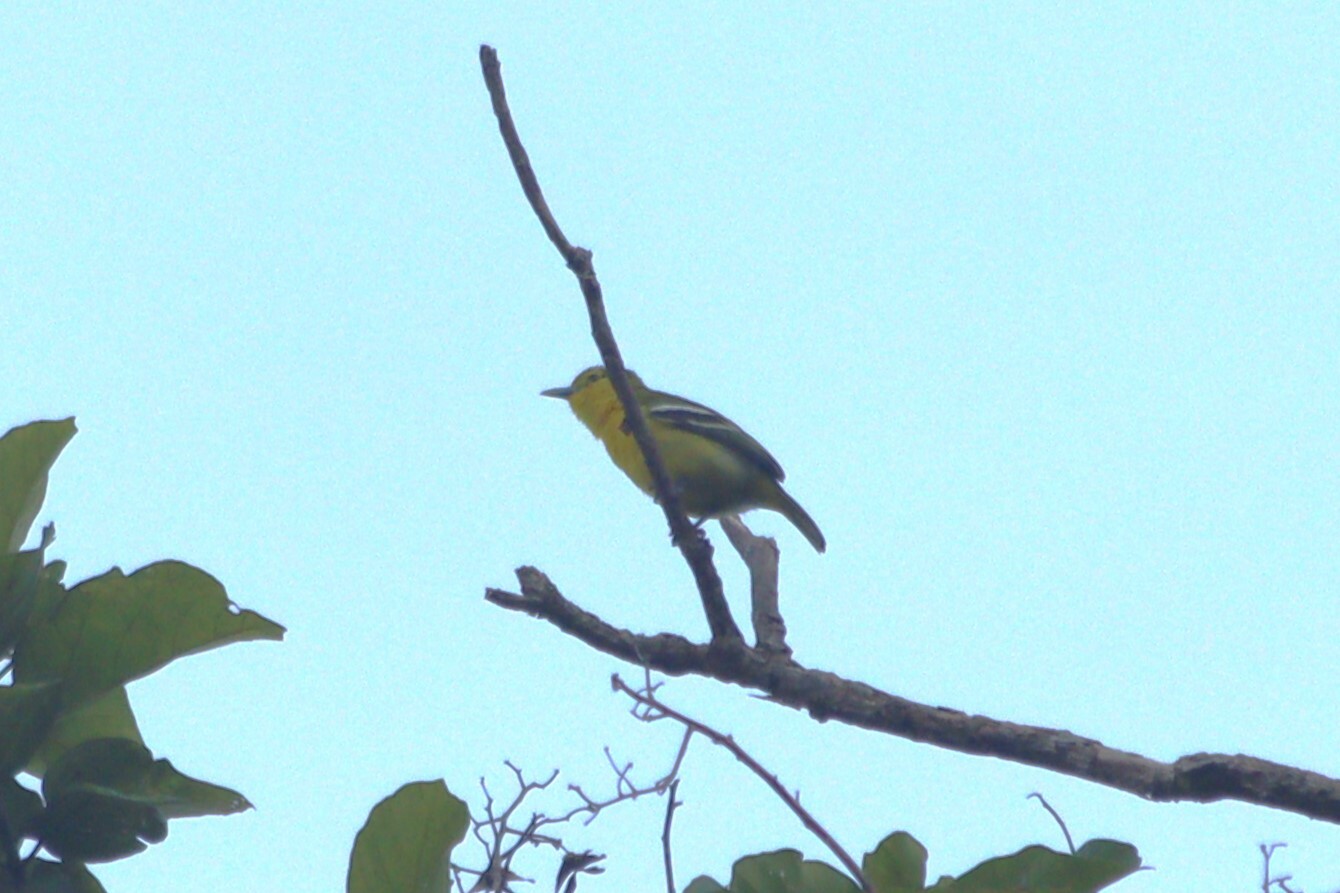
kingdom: Animalia
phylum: Chordata
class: Aves
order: Passeriformes
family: Aegithinidae
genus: Aegithina
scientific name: Aegithina tiphia
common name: Common iora
